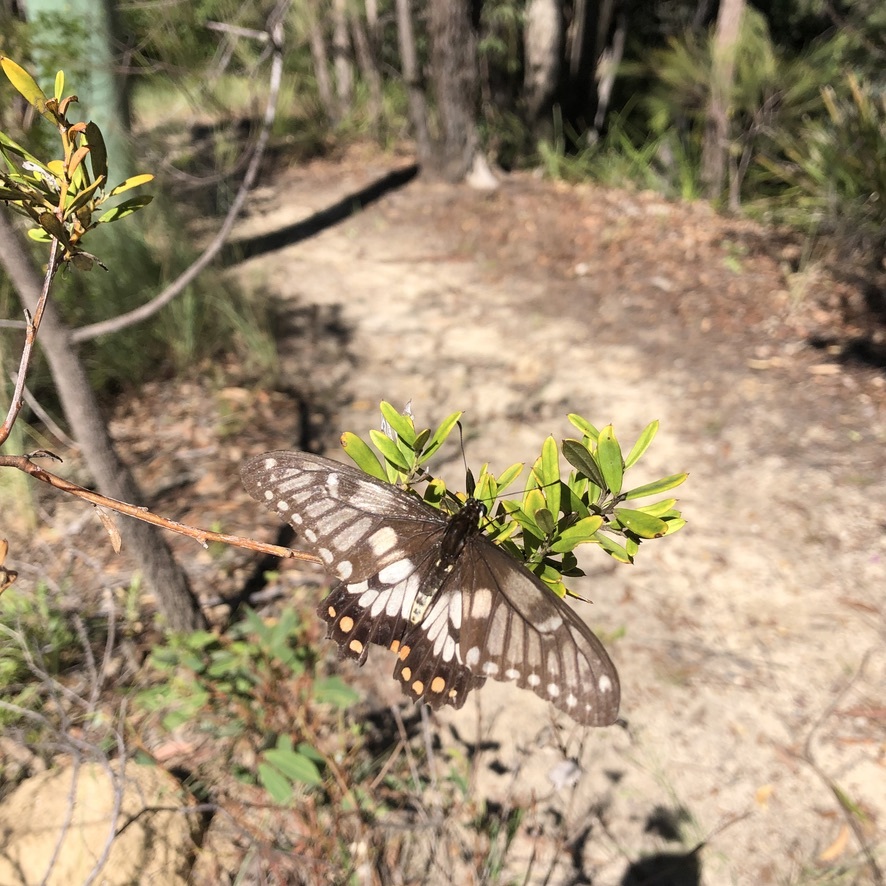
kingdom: Animalia
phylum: Arthropoda
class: Insecta
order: Lepidoptera
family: Papilionidae
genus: Papilio
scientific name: Papilio anactus
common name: Dingy swallowtail
